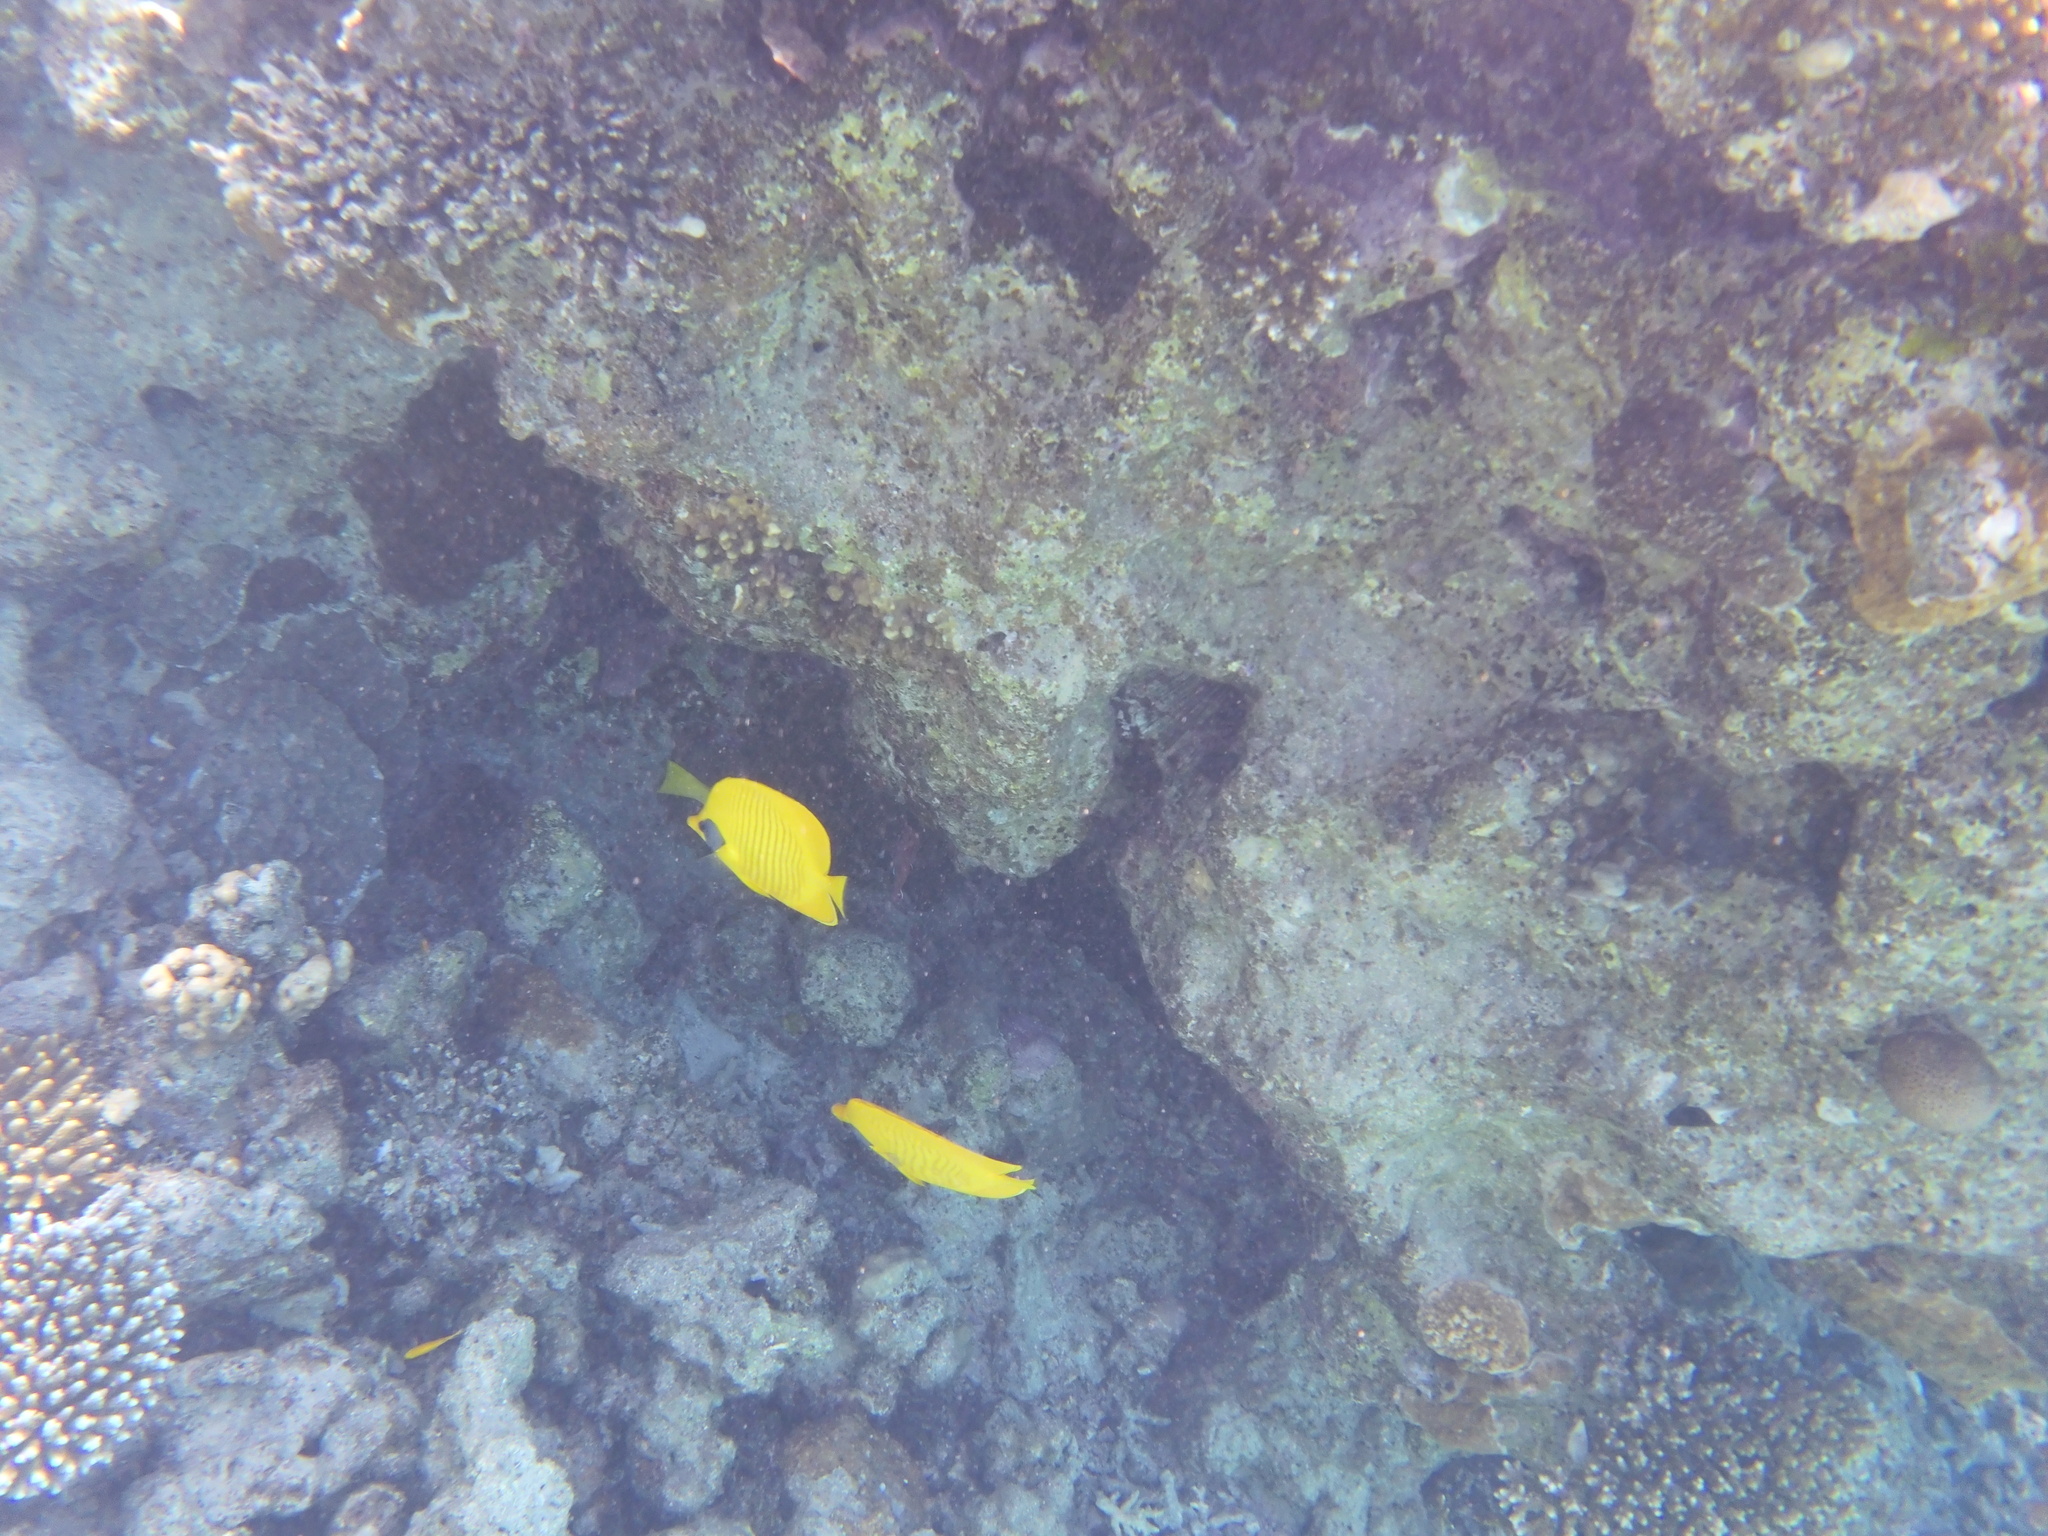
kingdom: Animalia
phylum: Chordata
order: Perciformes
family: Chaetodontidae
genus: Chaetodon
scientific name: Chaetodon semilarvatus
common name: Golden butterflyfish
